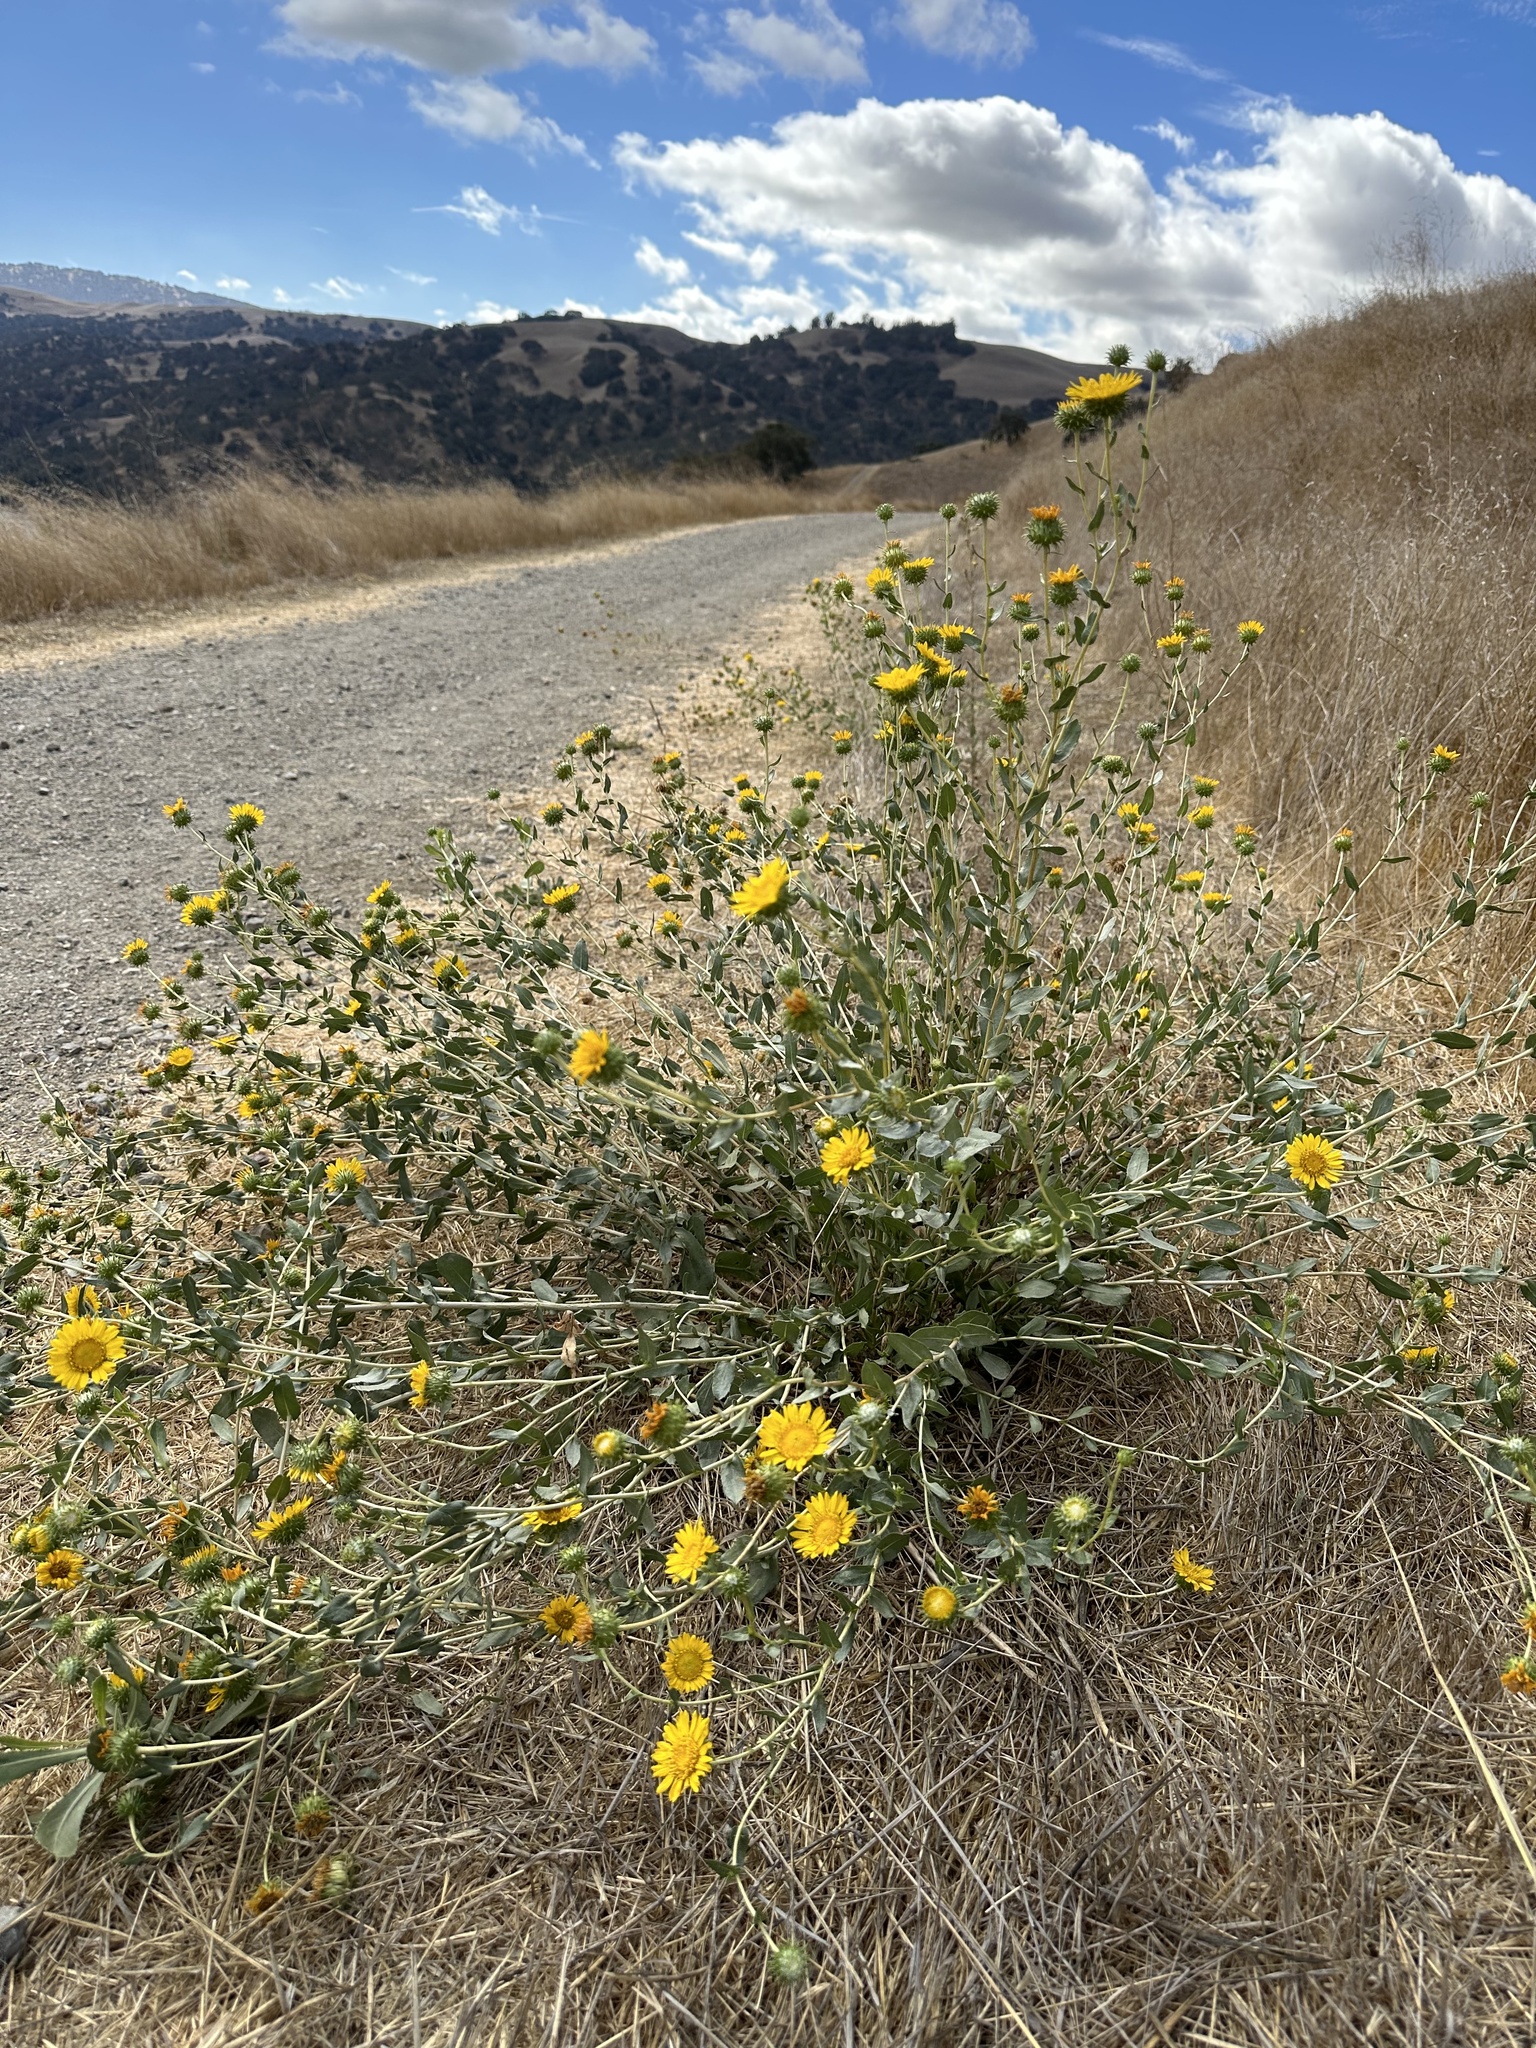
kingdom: Plantae
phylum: Tracheophyta
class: Magnoliopsida
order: Asterales
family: Asteraceae
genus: Grindelia
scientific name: Grindelia hirsutula
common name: Hairy gumweed
